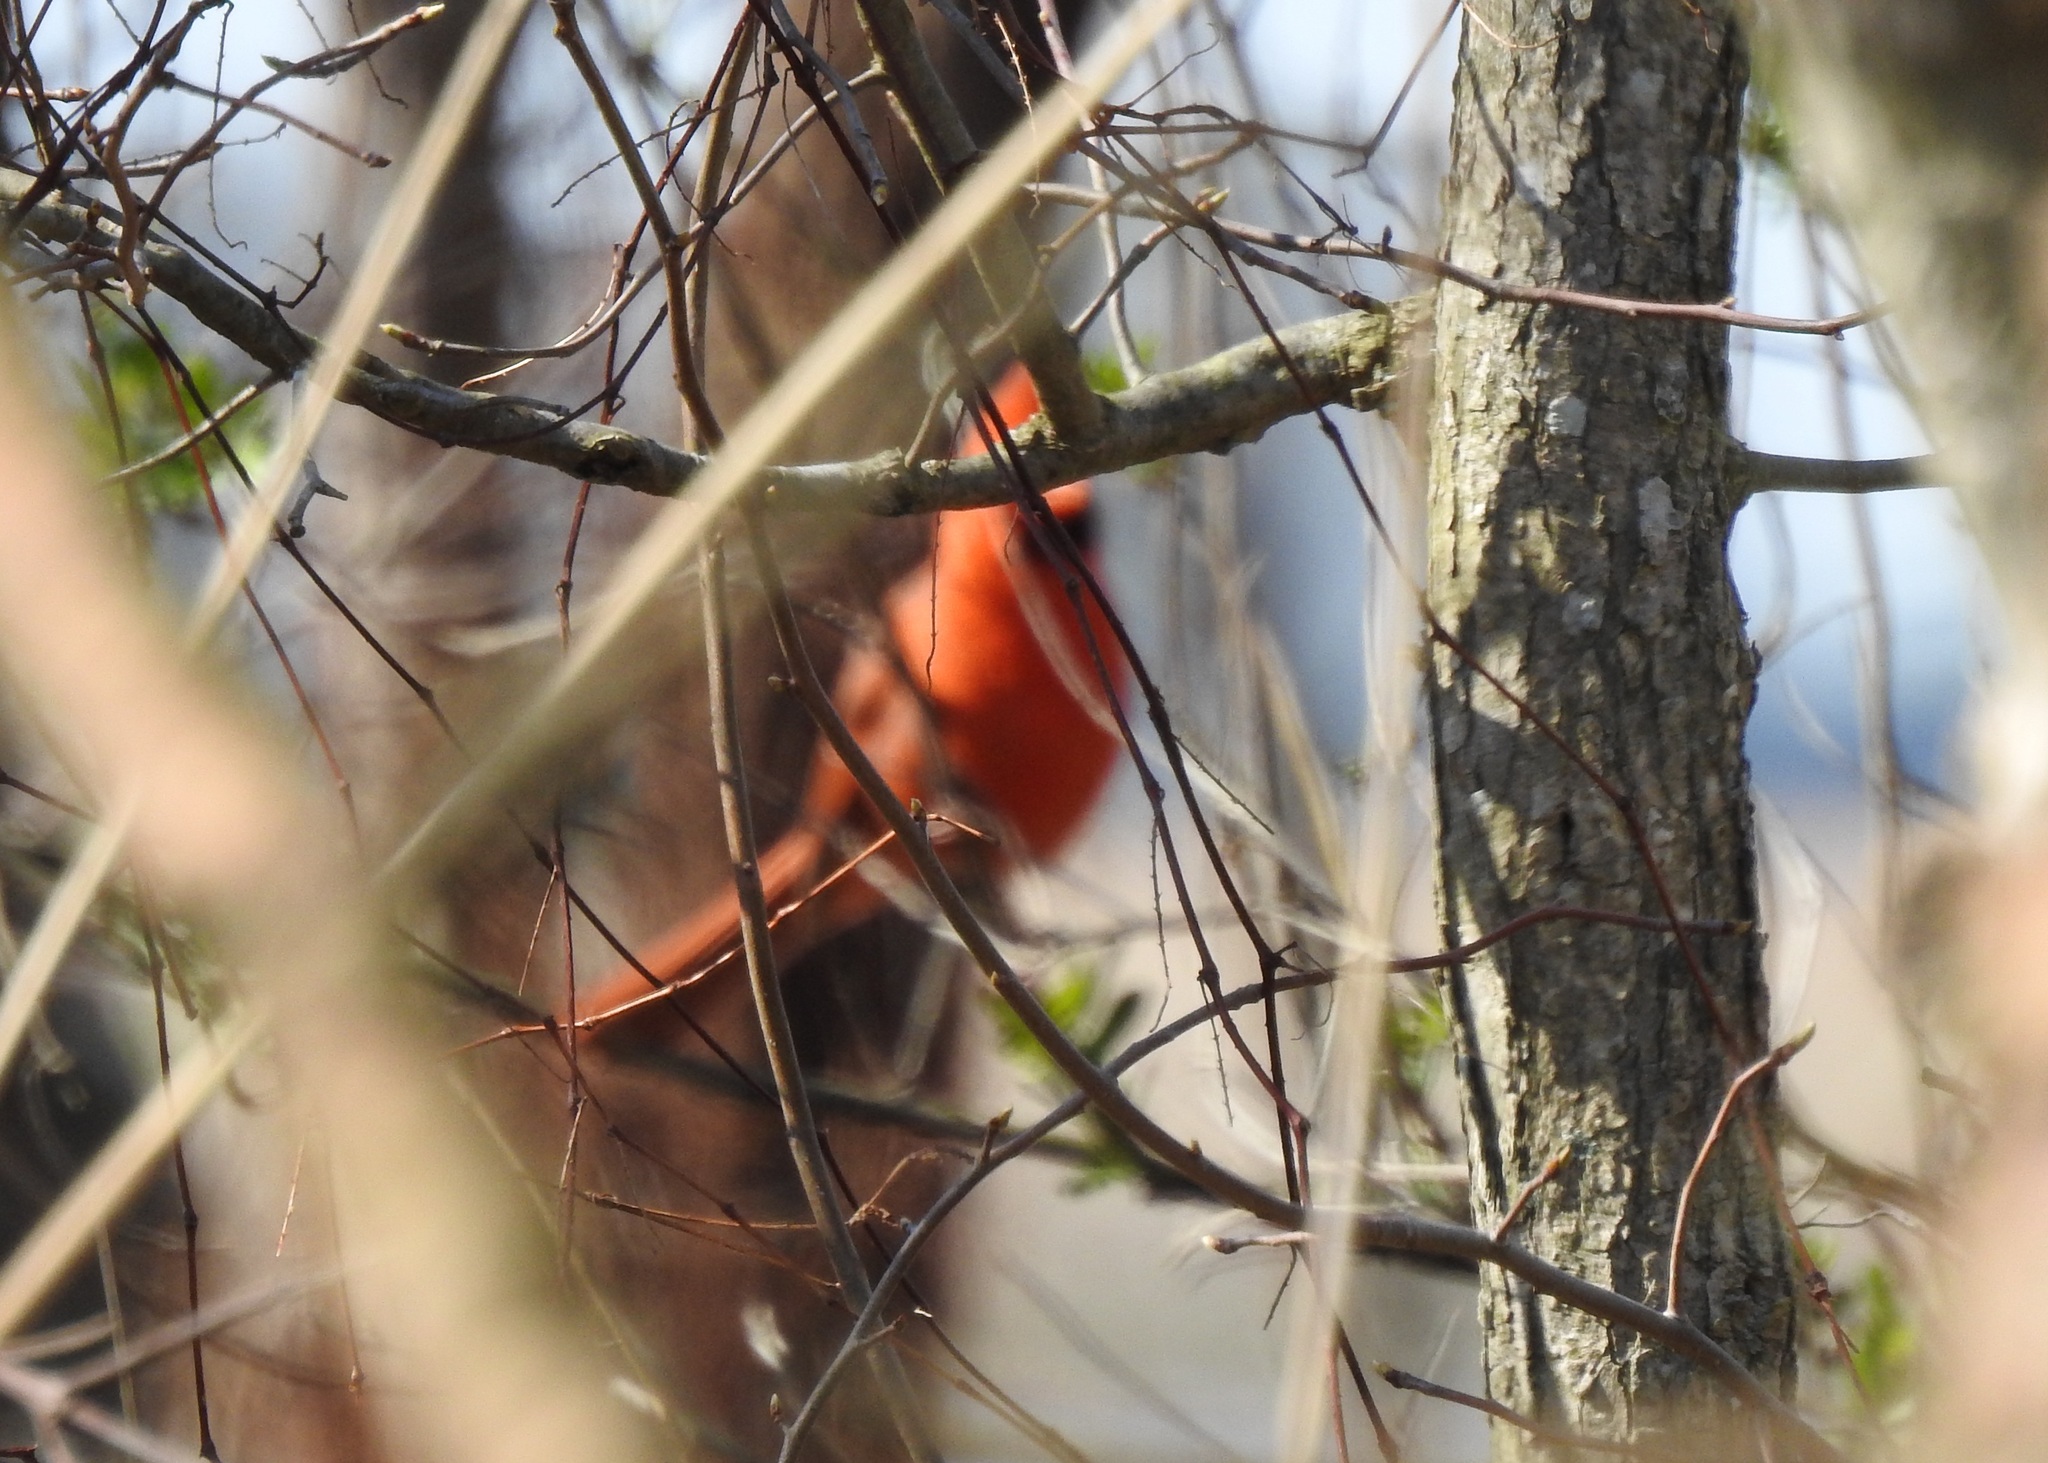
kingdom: Animalia
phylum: Chordata
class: Aves
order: Passeriformes
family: Cardinalidae
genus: Cardinalis
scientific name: Cardinalis cardinalis
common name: Northern cardinal
